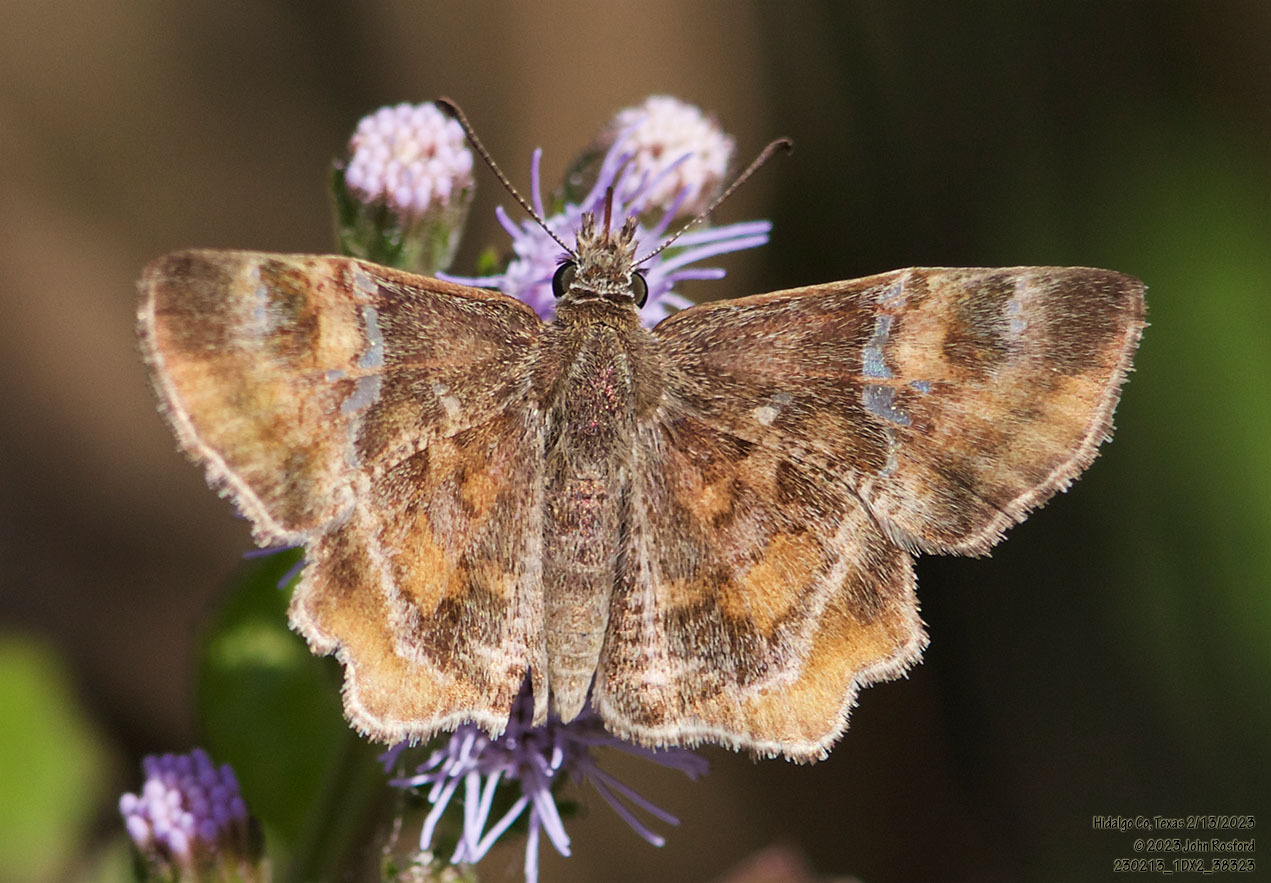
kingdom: Animalia
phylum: Arthropoda
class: Insecta
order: Lepidoptera
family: Hesperiidae
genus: Systasea
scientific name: Systasea pulverulenta
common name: Texas powdered skipper
